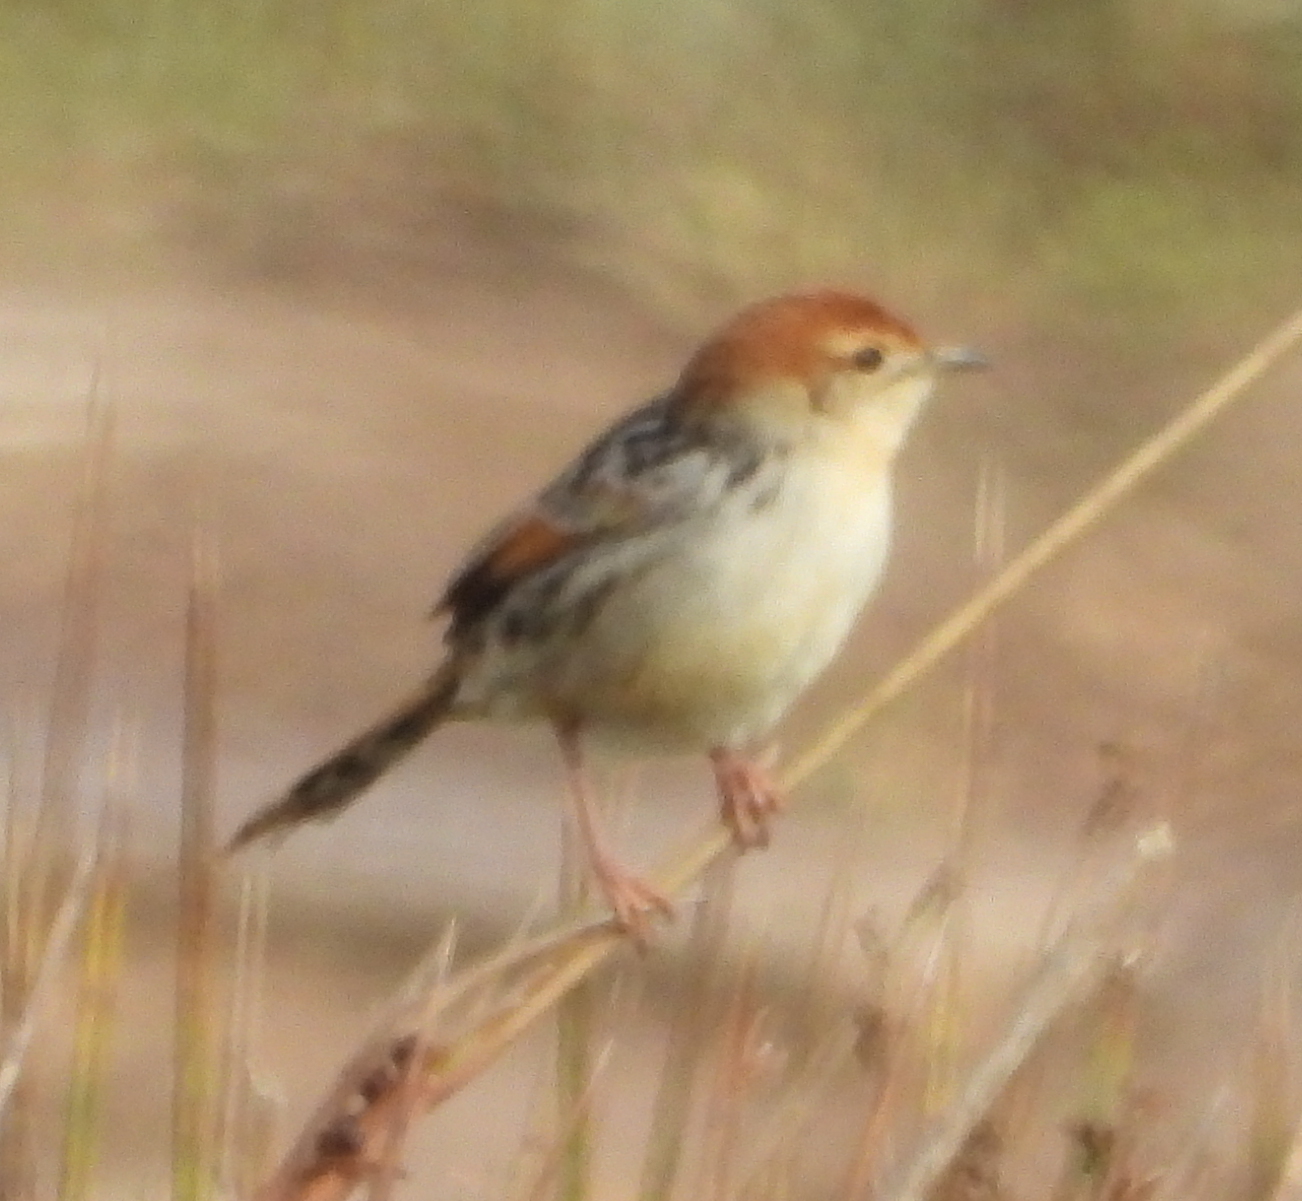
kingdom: Animalia
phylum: Chordata
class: Aves
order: Passeriformes
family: Cisticolidae
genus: Cisticola
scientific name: Cisticola tinniens
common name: Levaillant's cisticola
